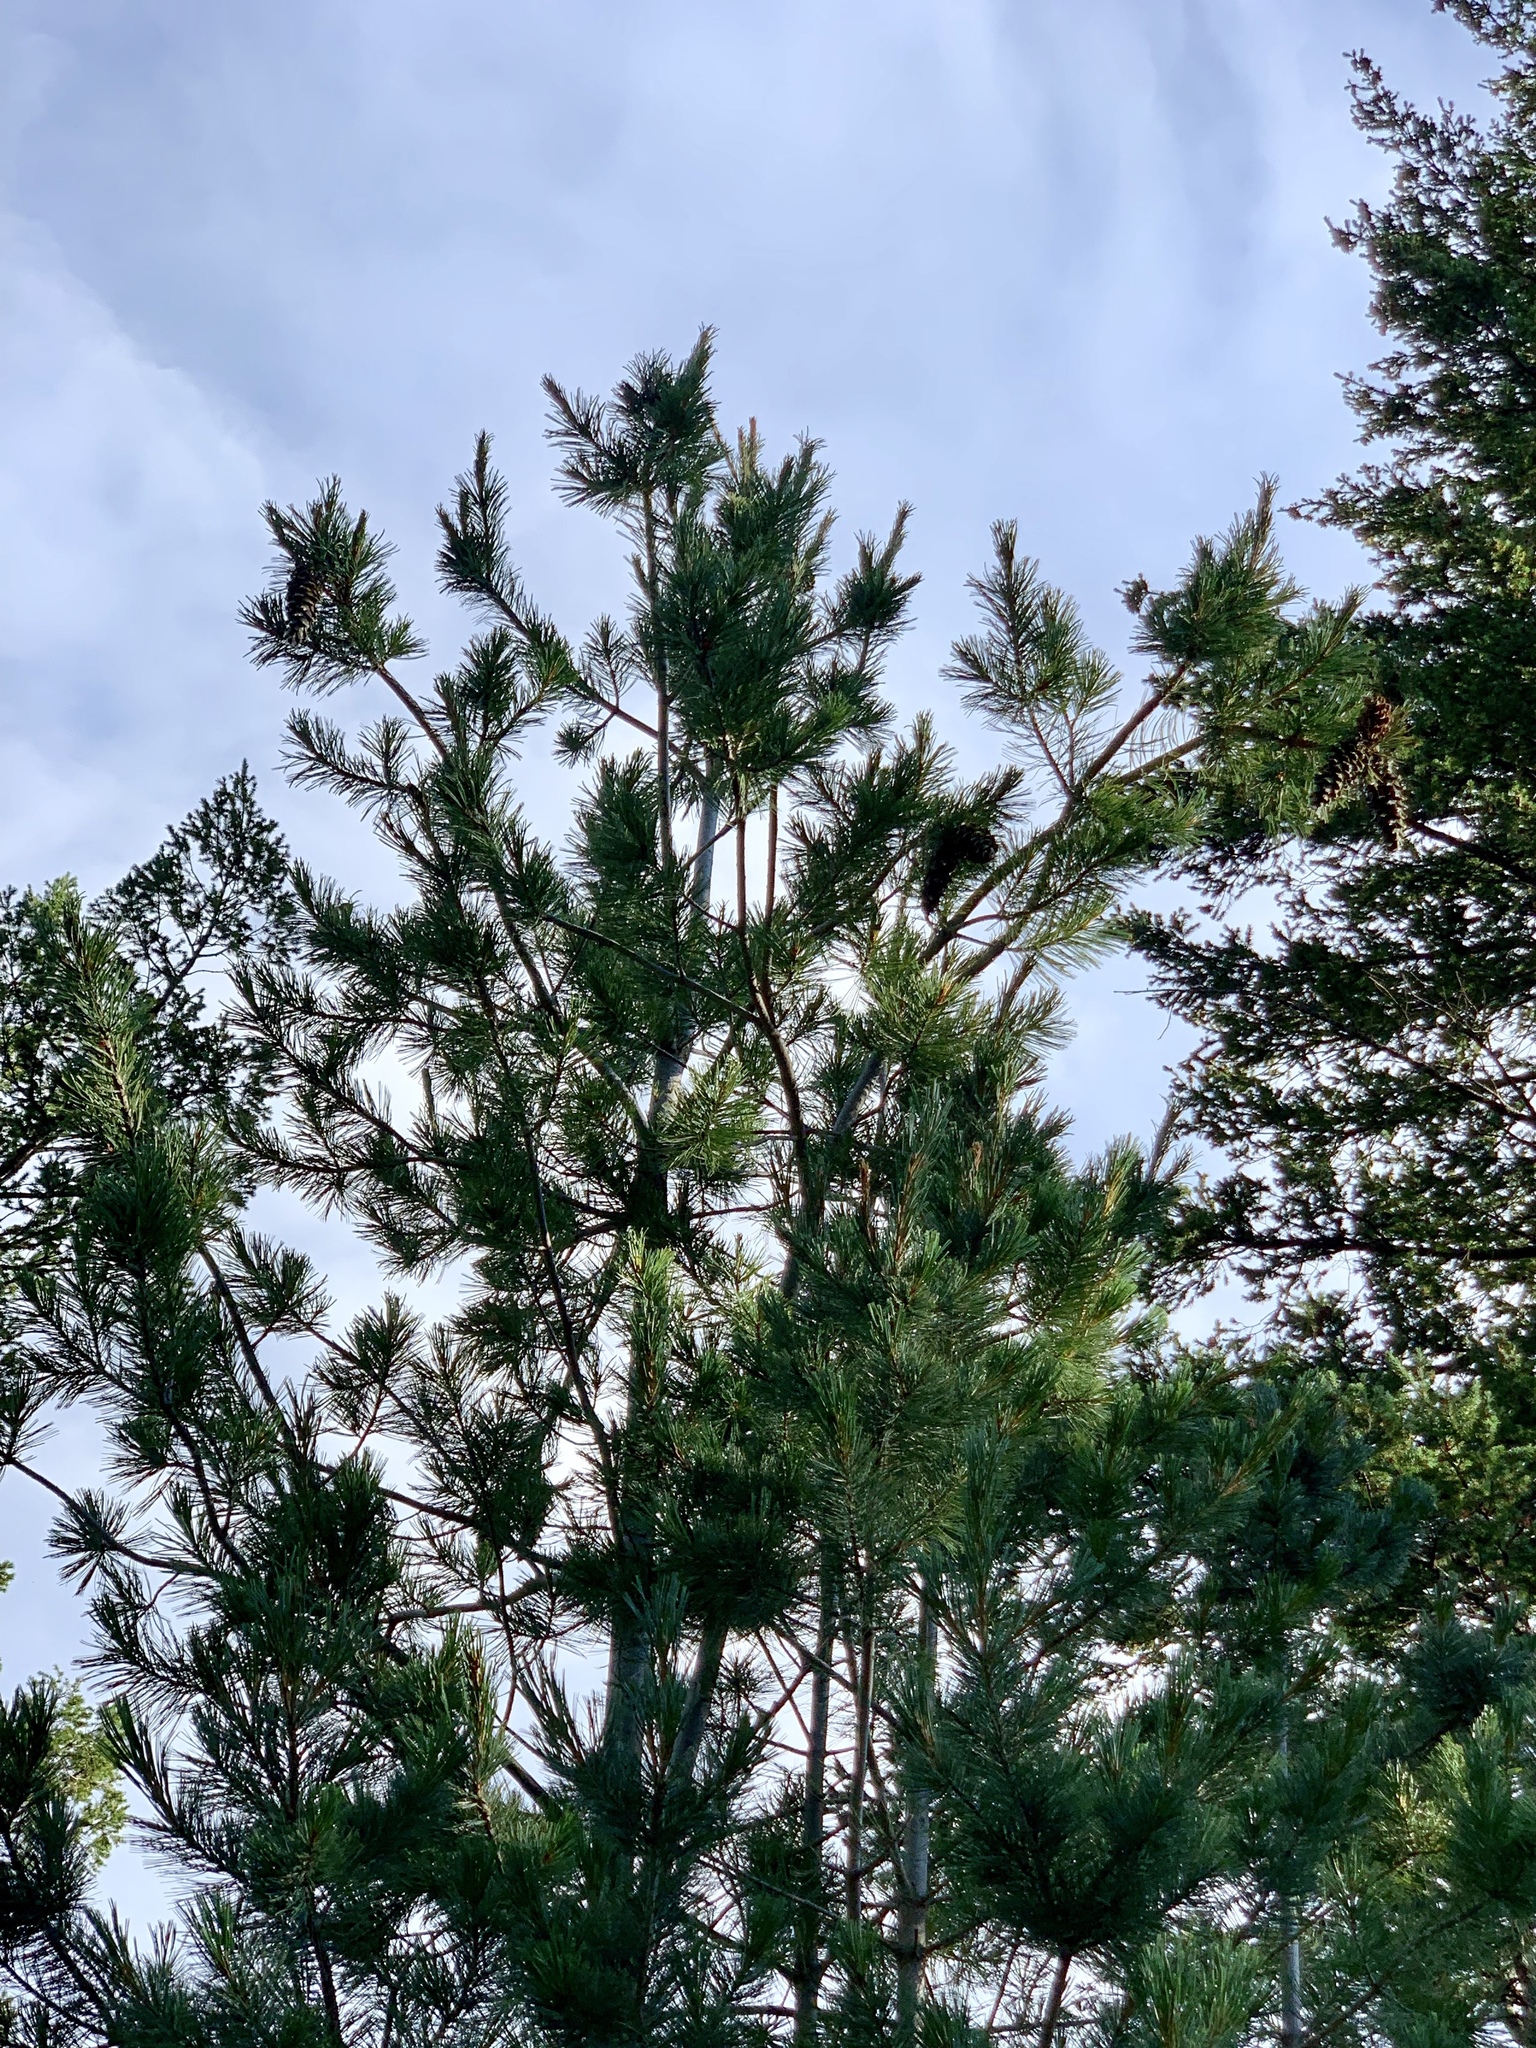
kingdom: Plantae
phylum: Tracheophyta
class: Pinopsida
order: Pinales
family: Pinaceae
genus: Pinus
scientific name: Pinus strobiformis
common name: Southwestern white pine
